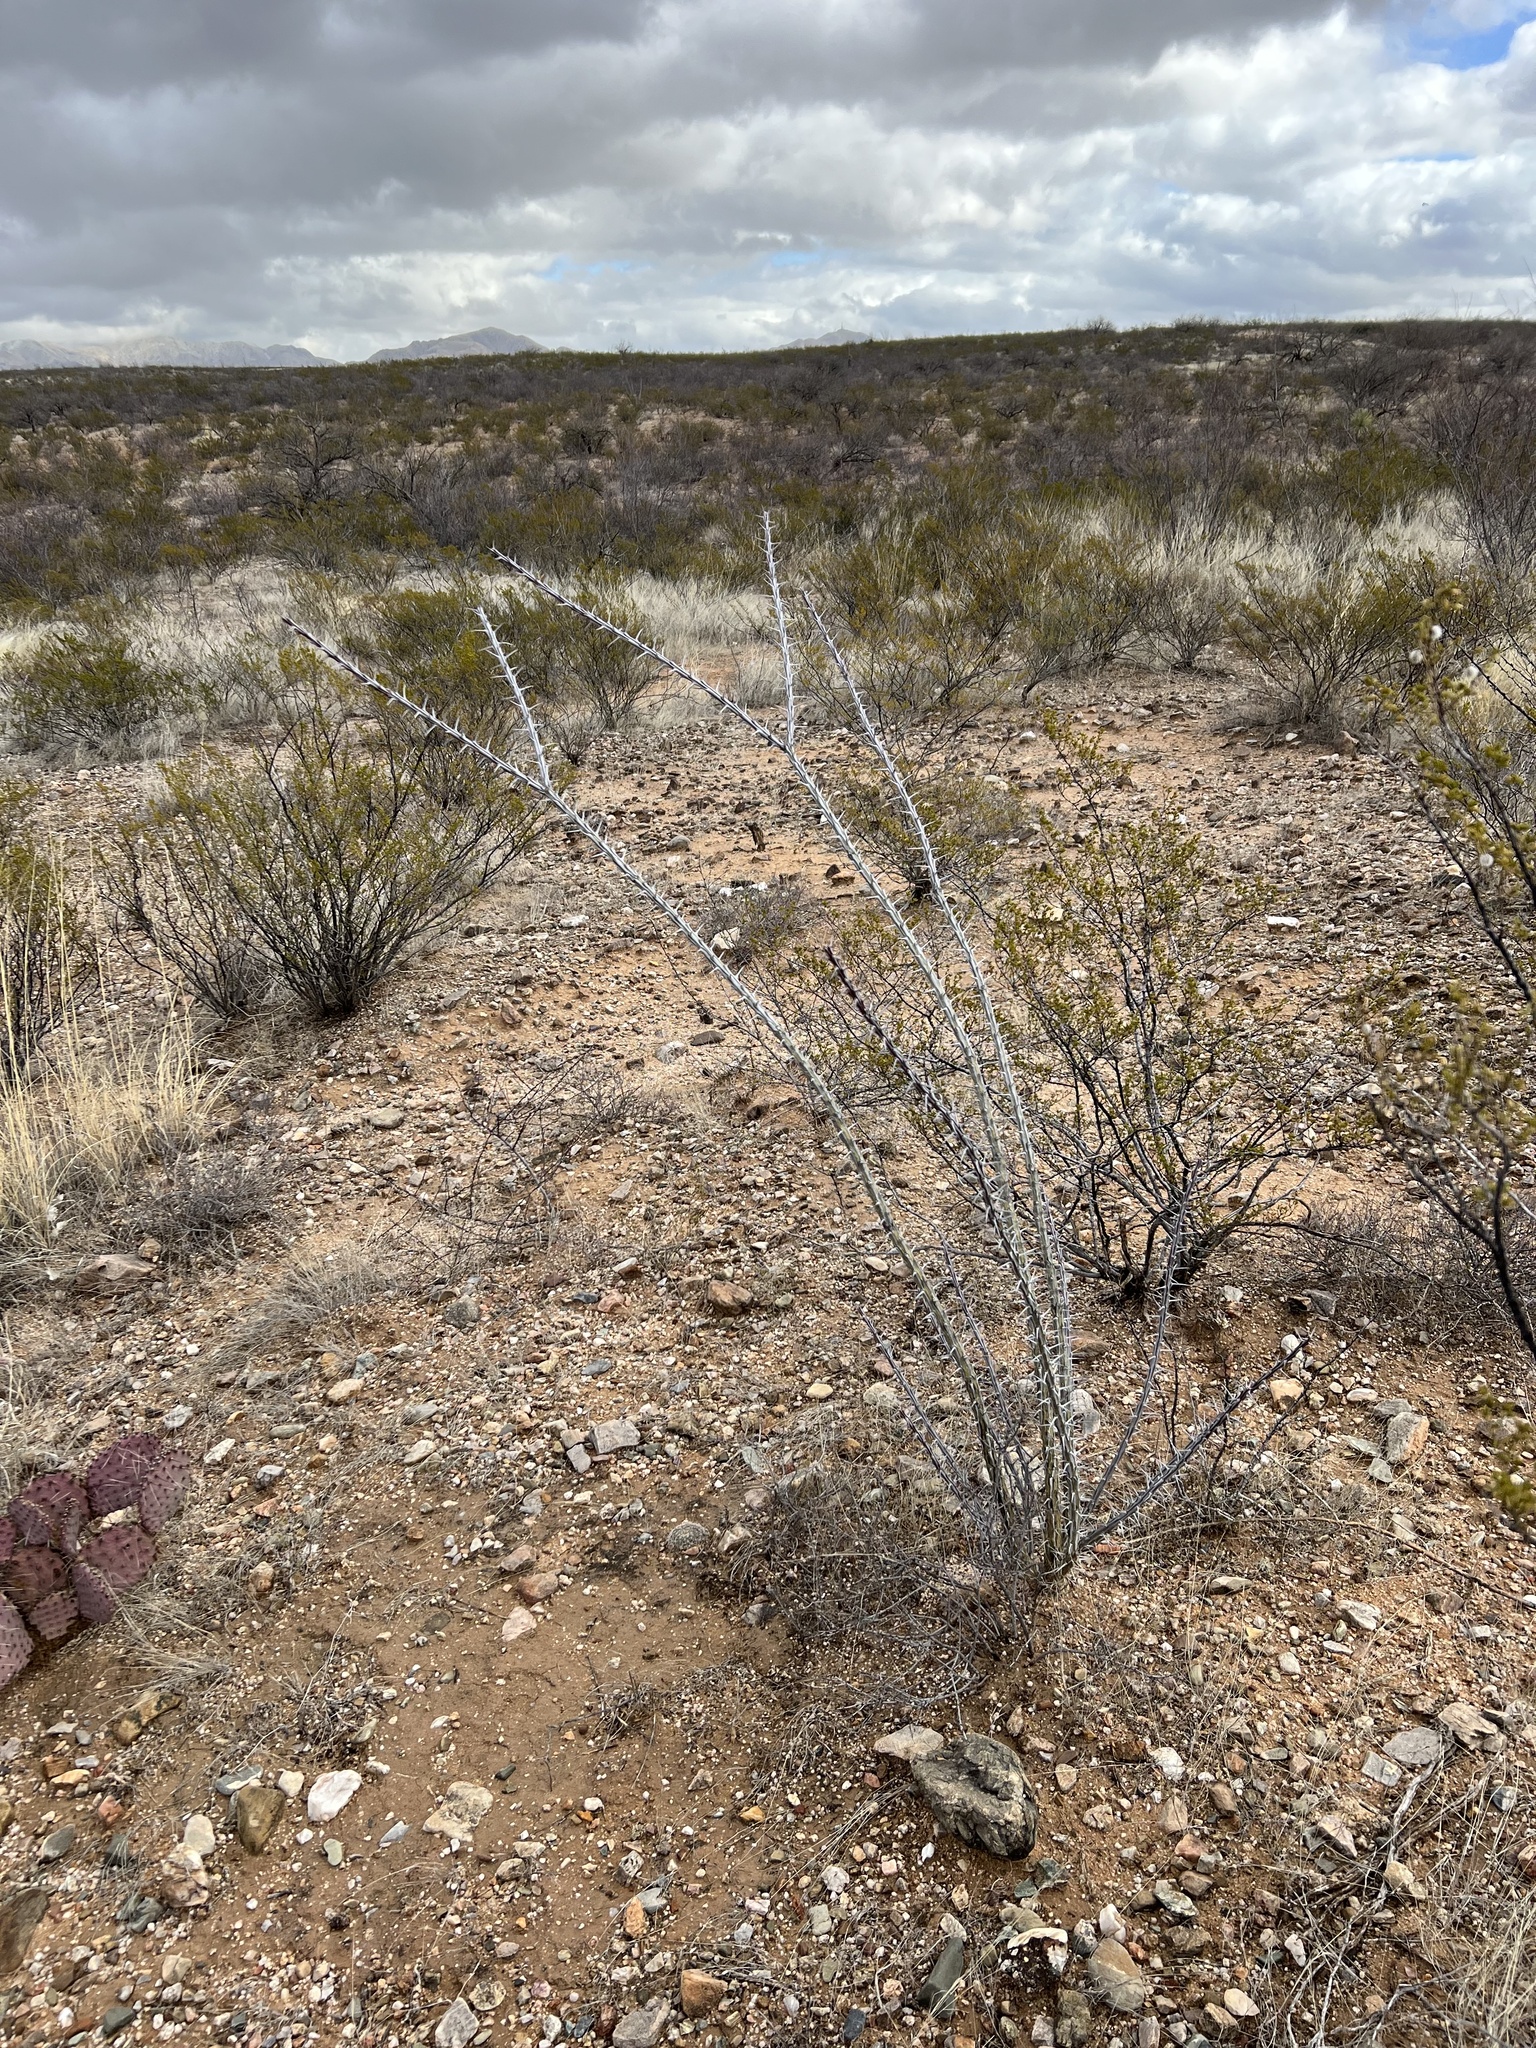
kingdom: Plantae
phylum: Tracheophyta
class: Magnoliopsida
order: Ericales
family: Fouquieriaceae
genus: Fouquieria
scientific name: Fouquieria splendens
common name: Vine-cactus
